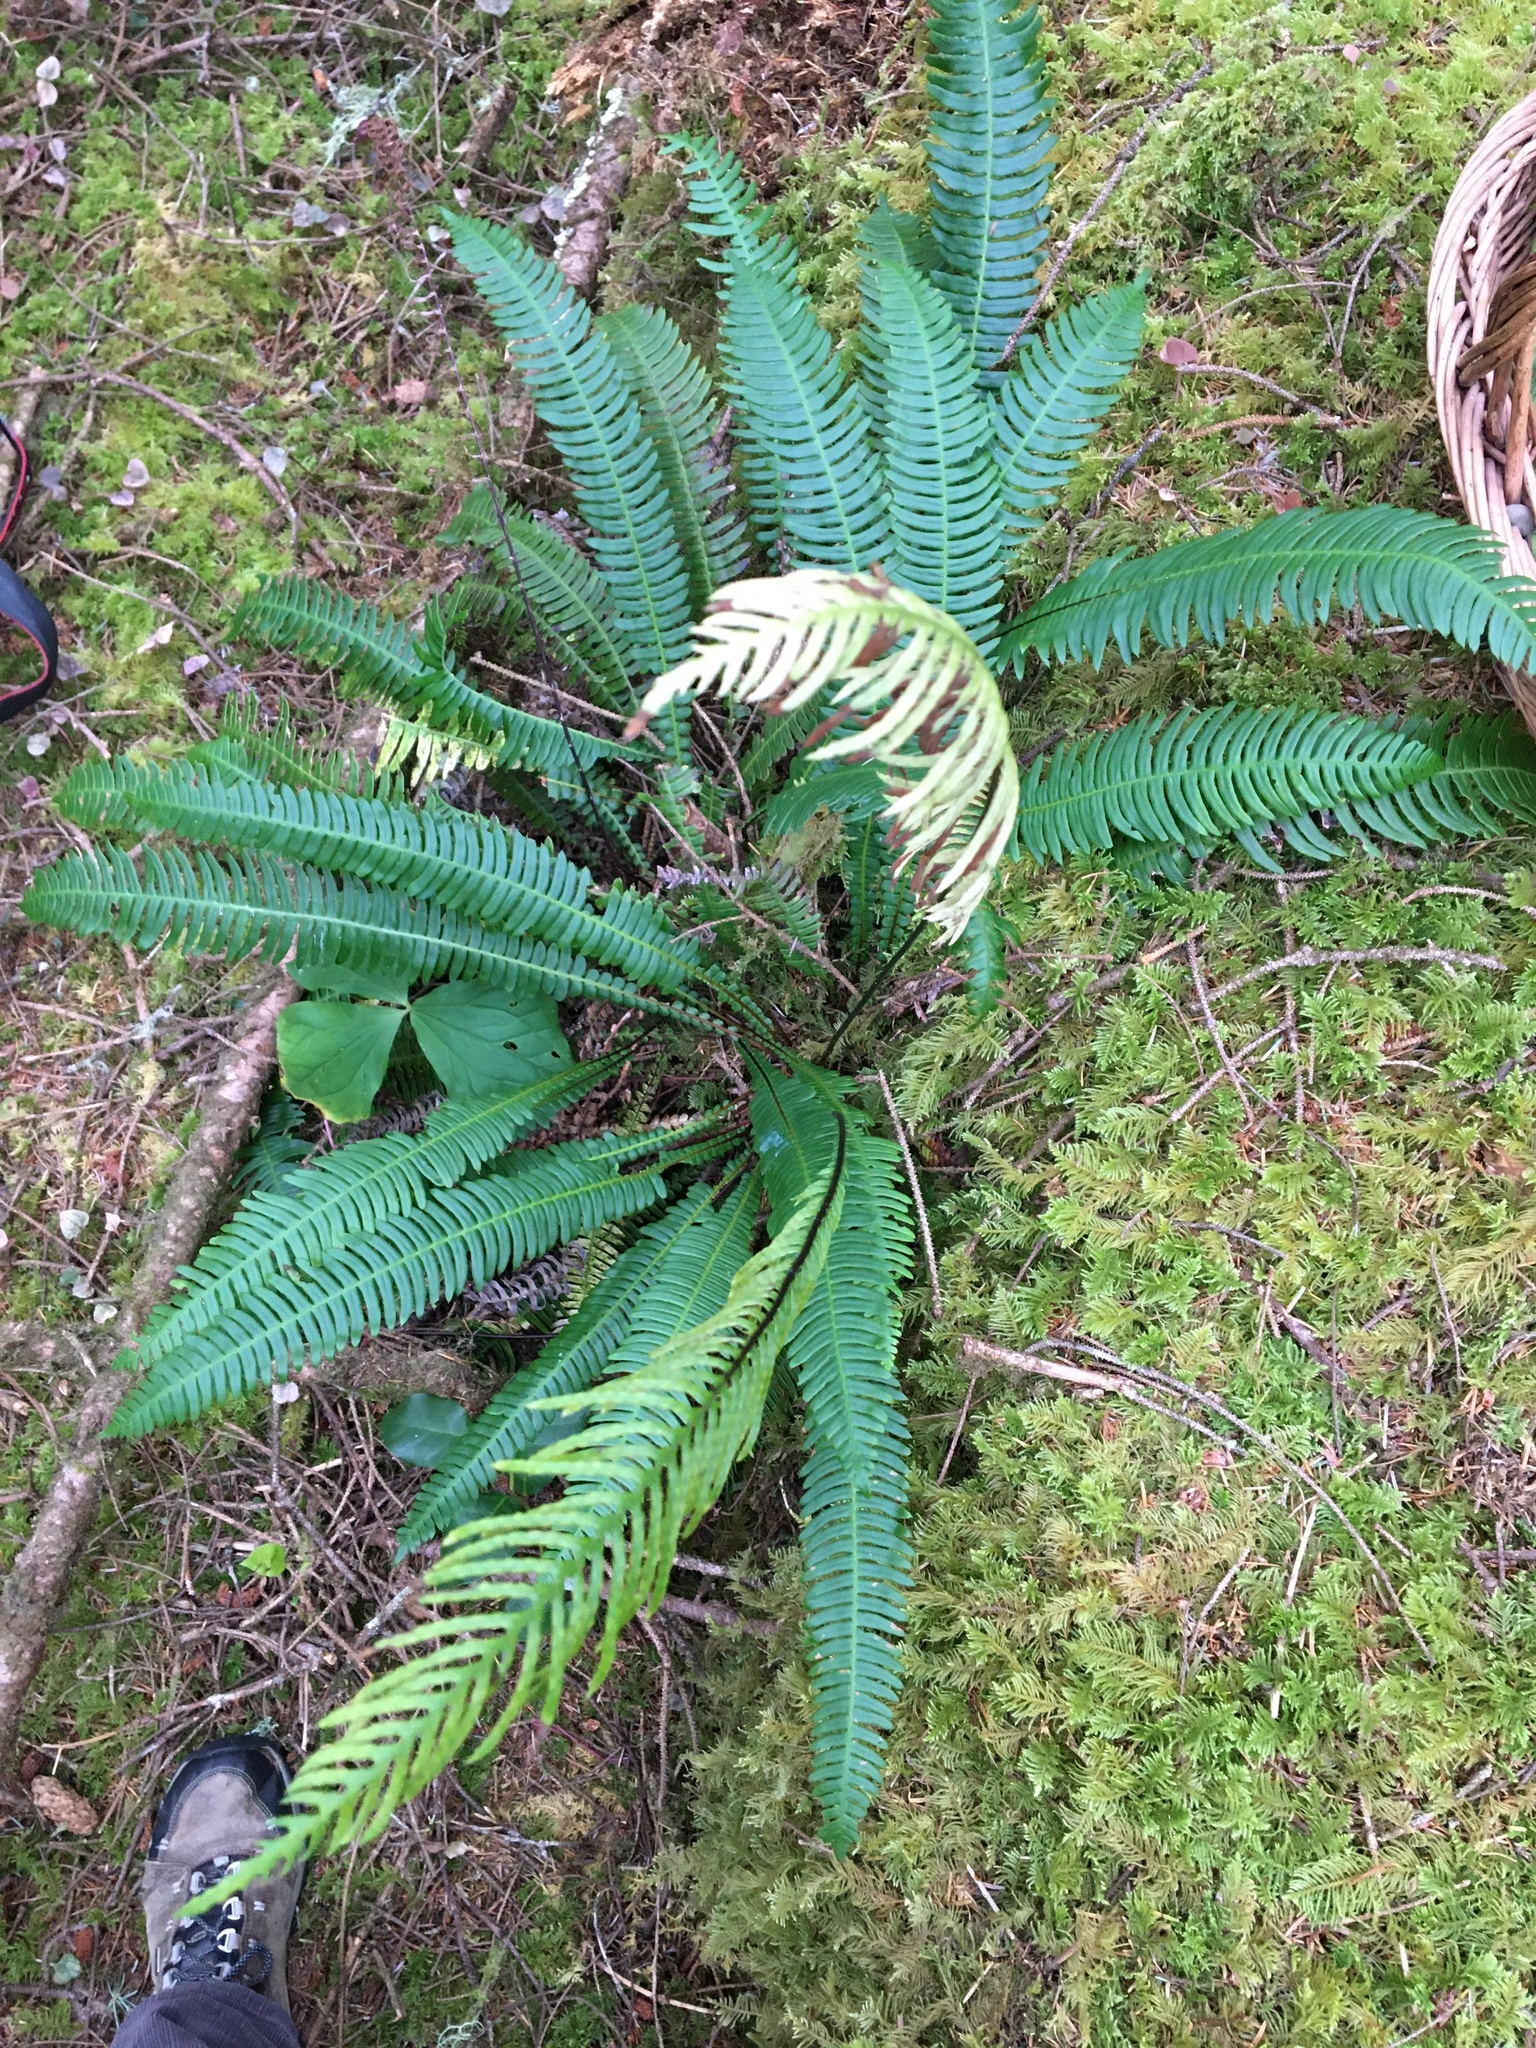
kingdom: Plantae
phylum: Tracheophyta
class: Polypodiopsida
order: Polypodiales
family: Blechnaceae
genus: Struthiopteris
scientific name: Struthiopteris spicant
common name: Deer fern
